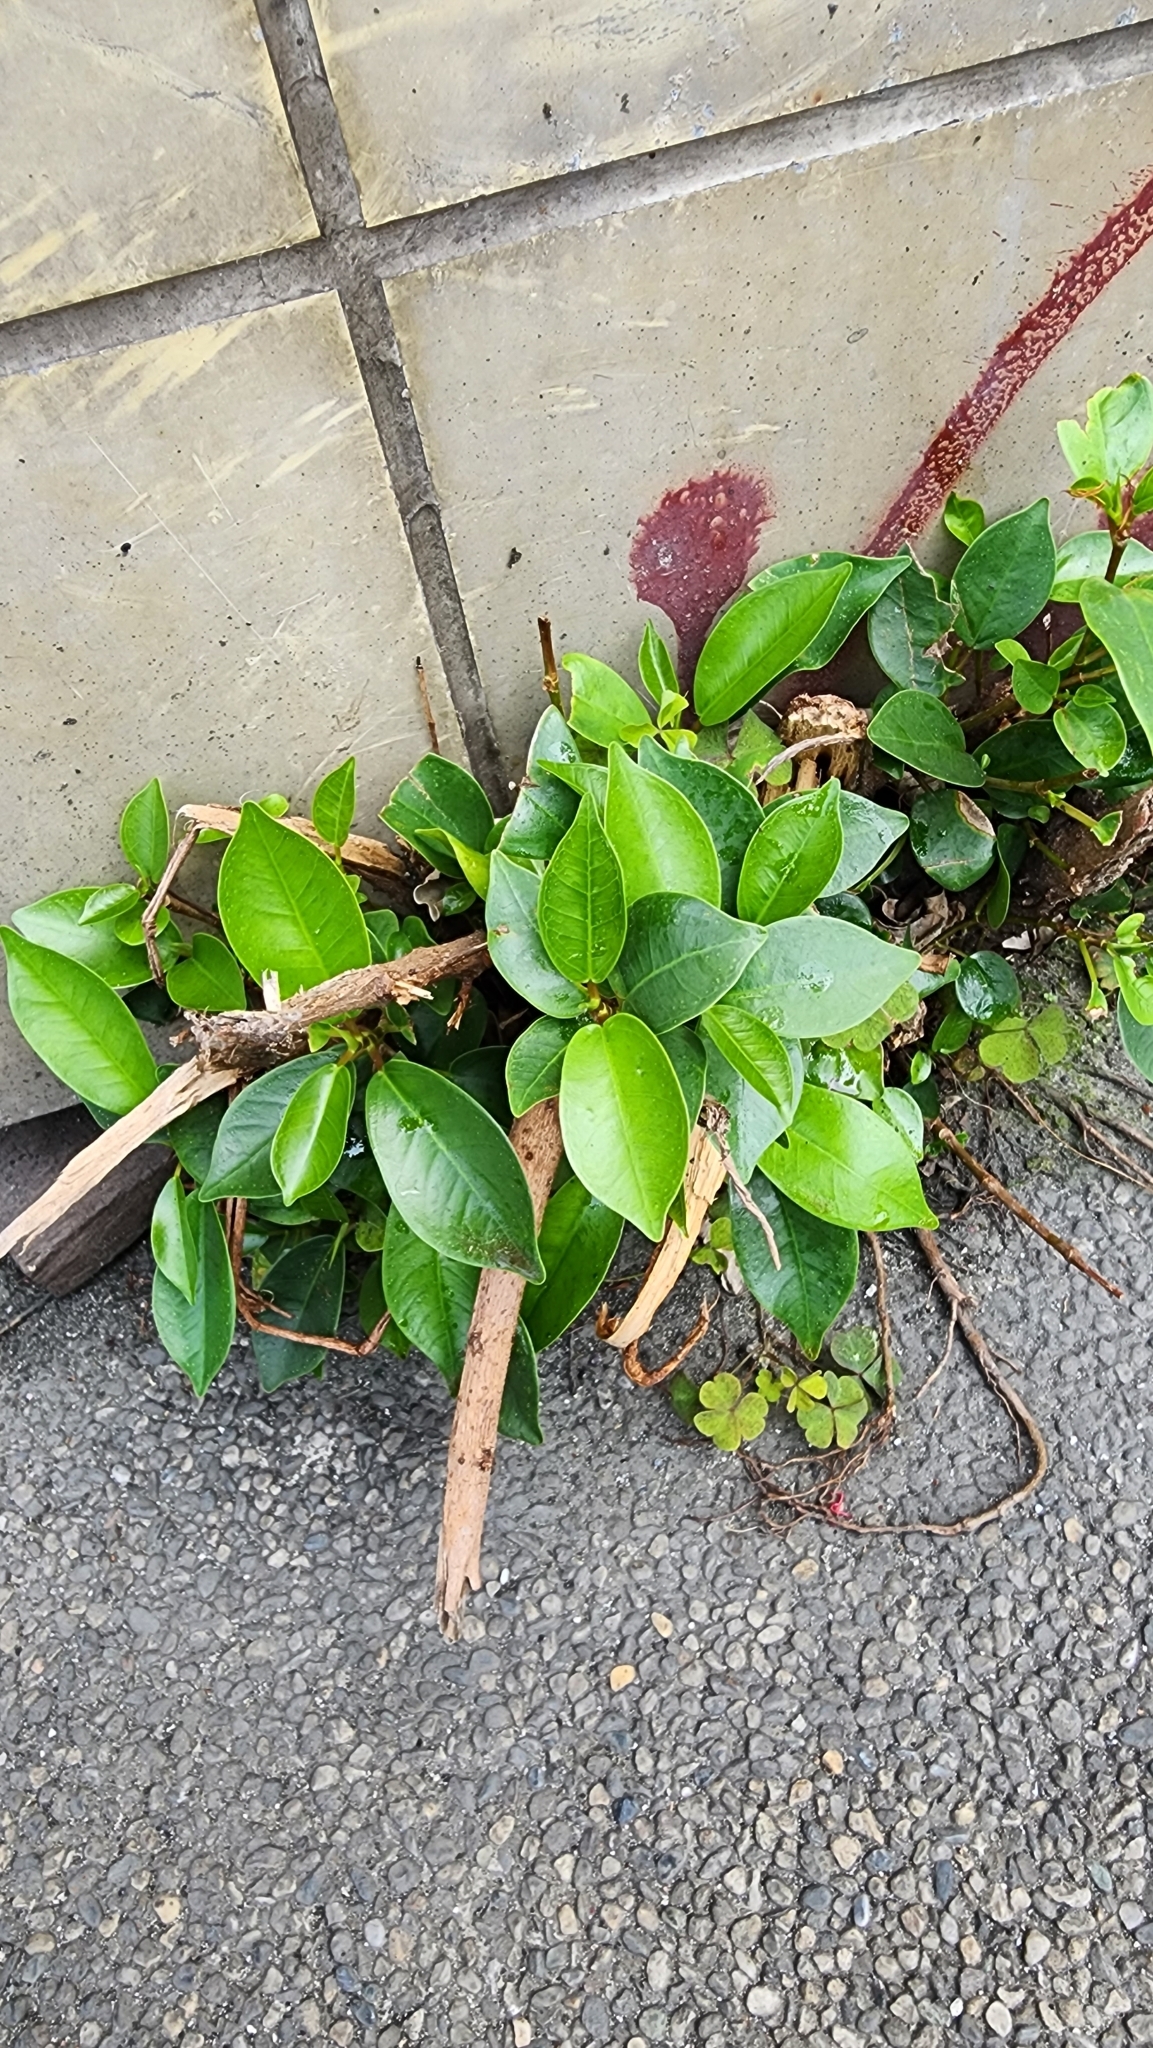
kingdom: Plantae
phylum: Tracheophyta
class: Magnoliopsida
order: Rosales
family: Moraceae
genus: Ficus
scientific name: Ficus microcarpa
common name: Chinese banyan
